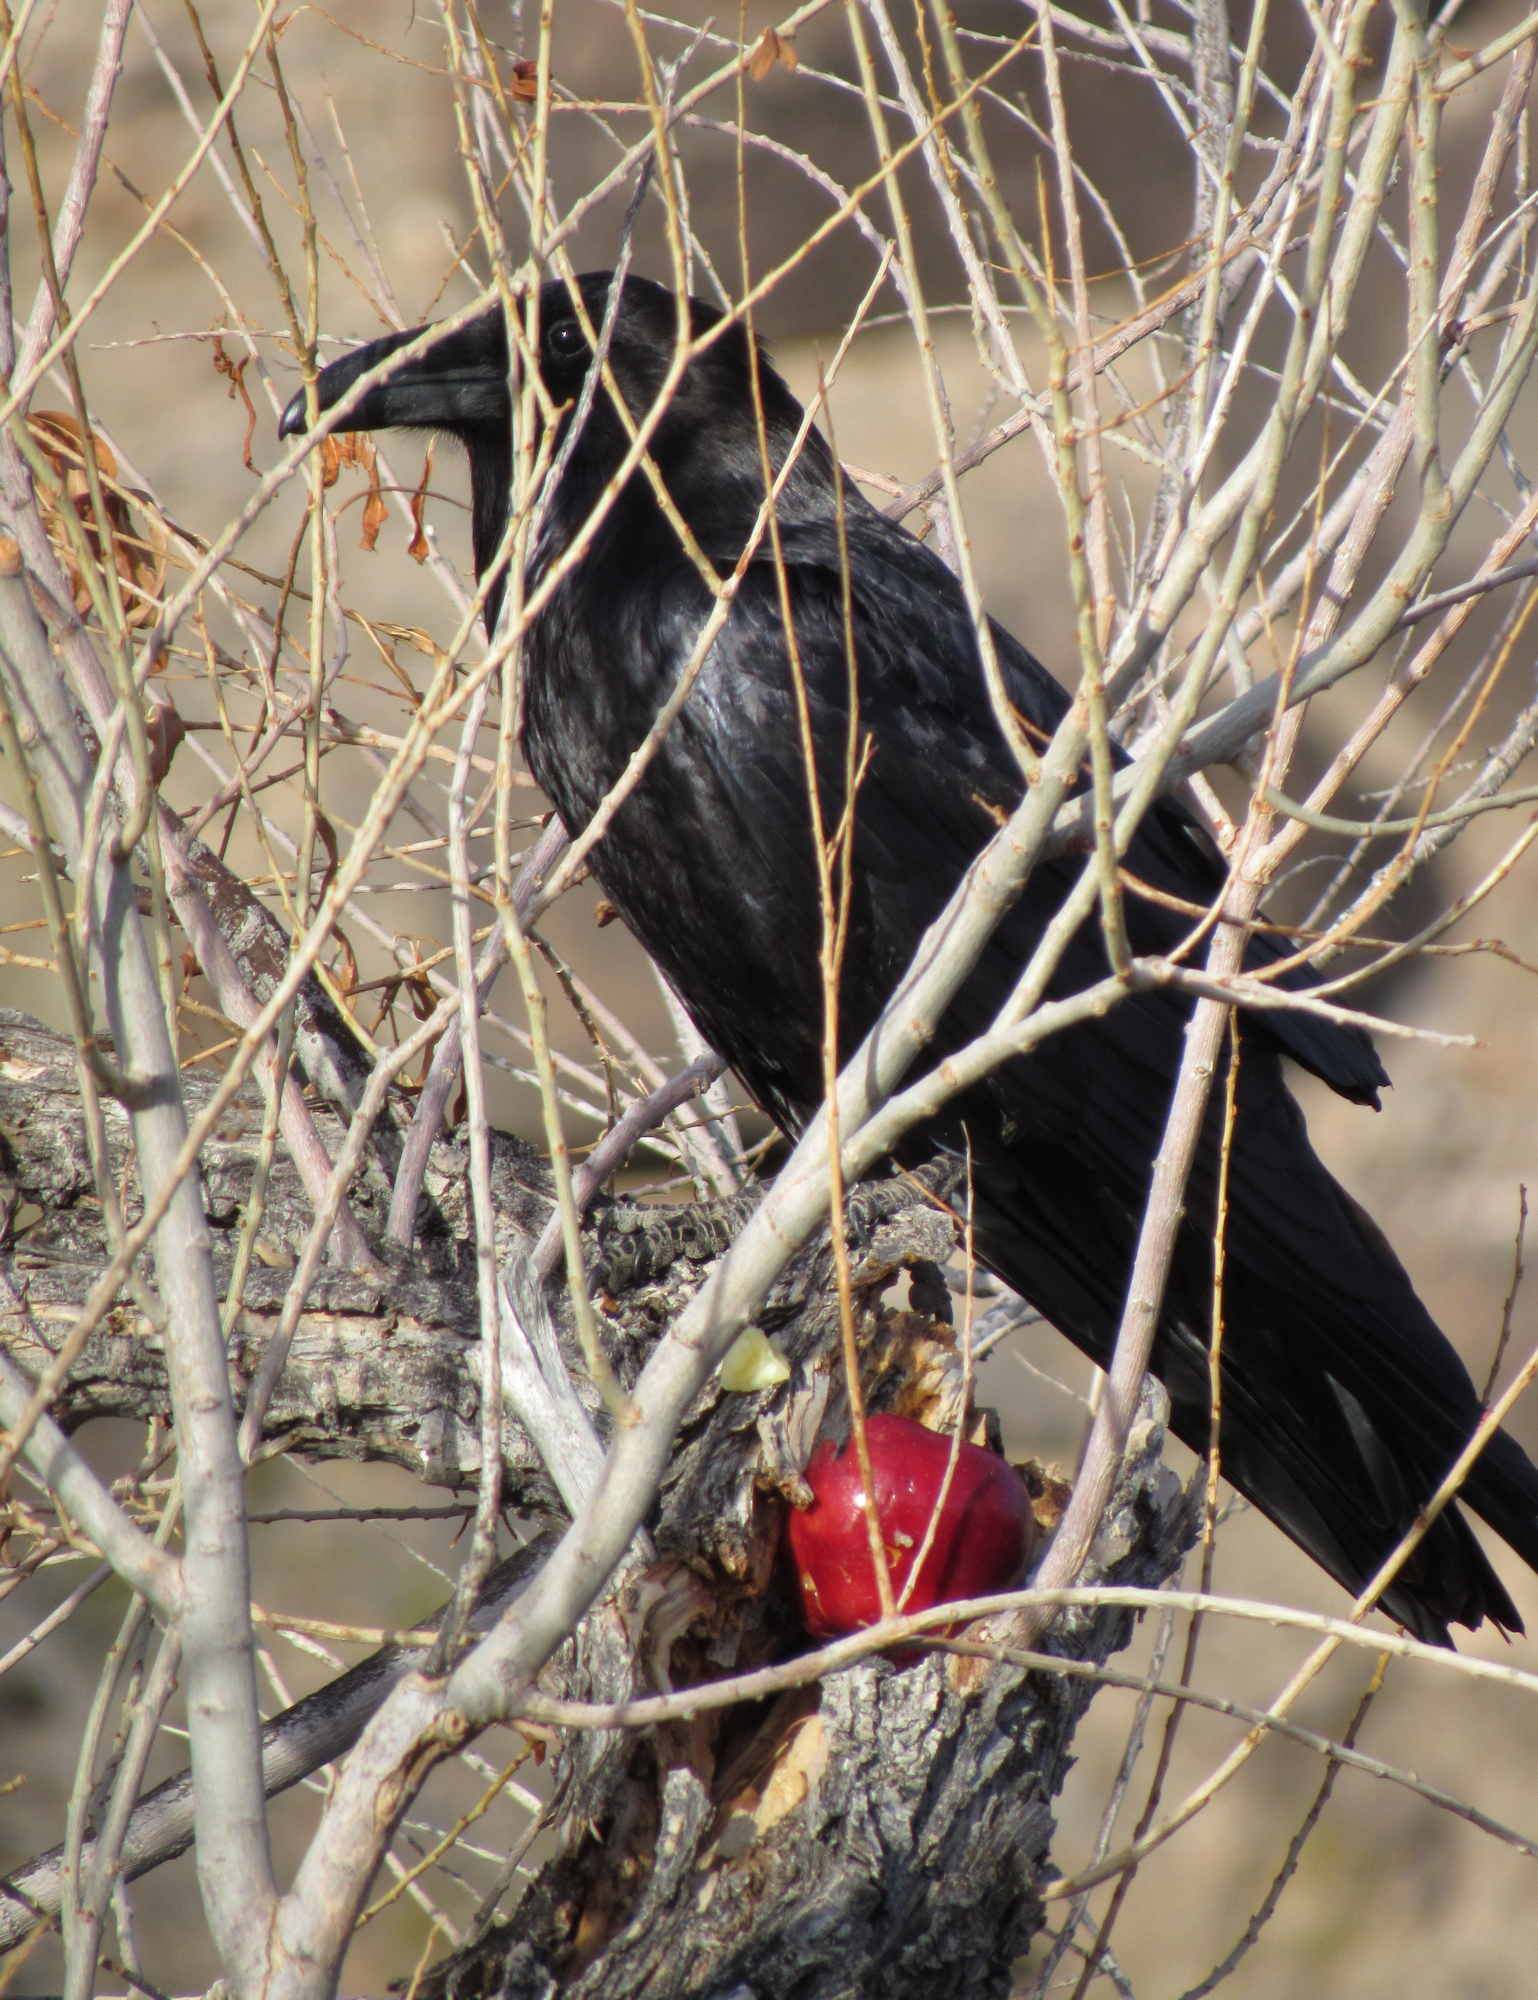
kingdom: Animalia
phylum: Chordata
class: Aves
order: Passeriformes
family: Corvidae
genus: Corvus
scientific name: Corvus corax
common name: Common raven
